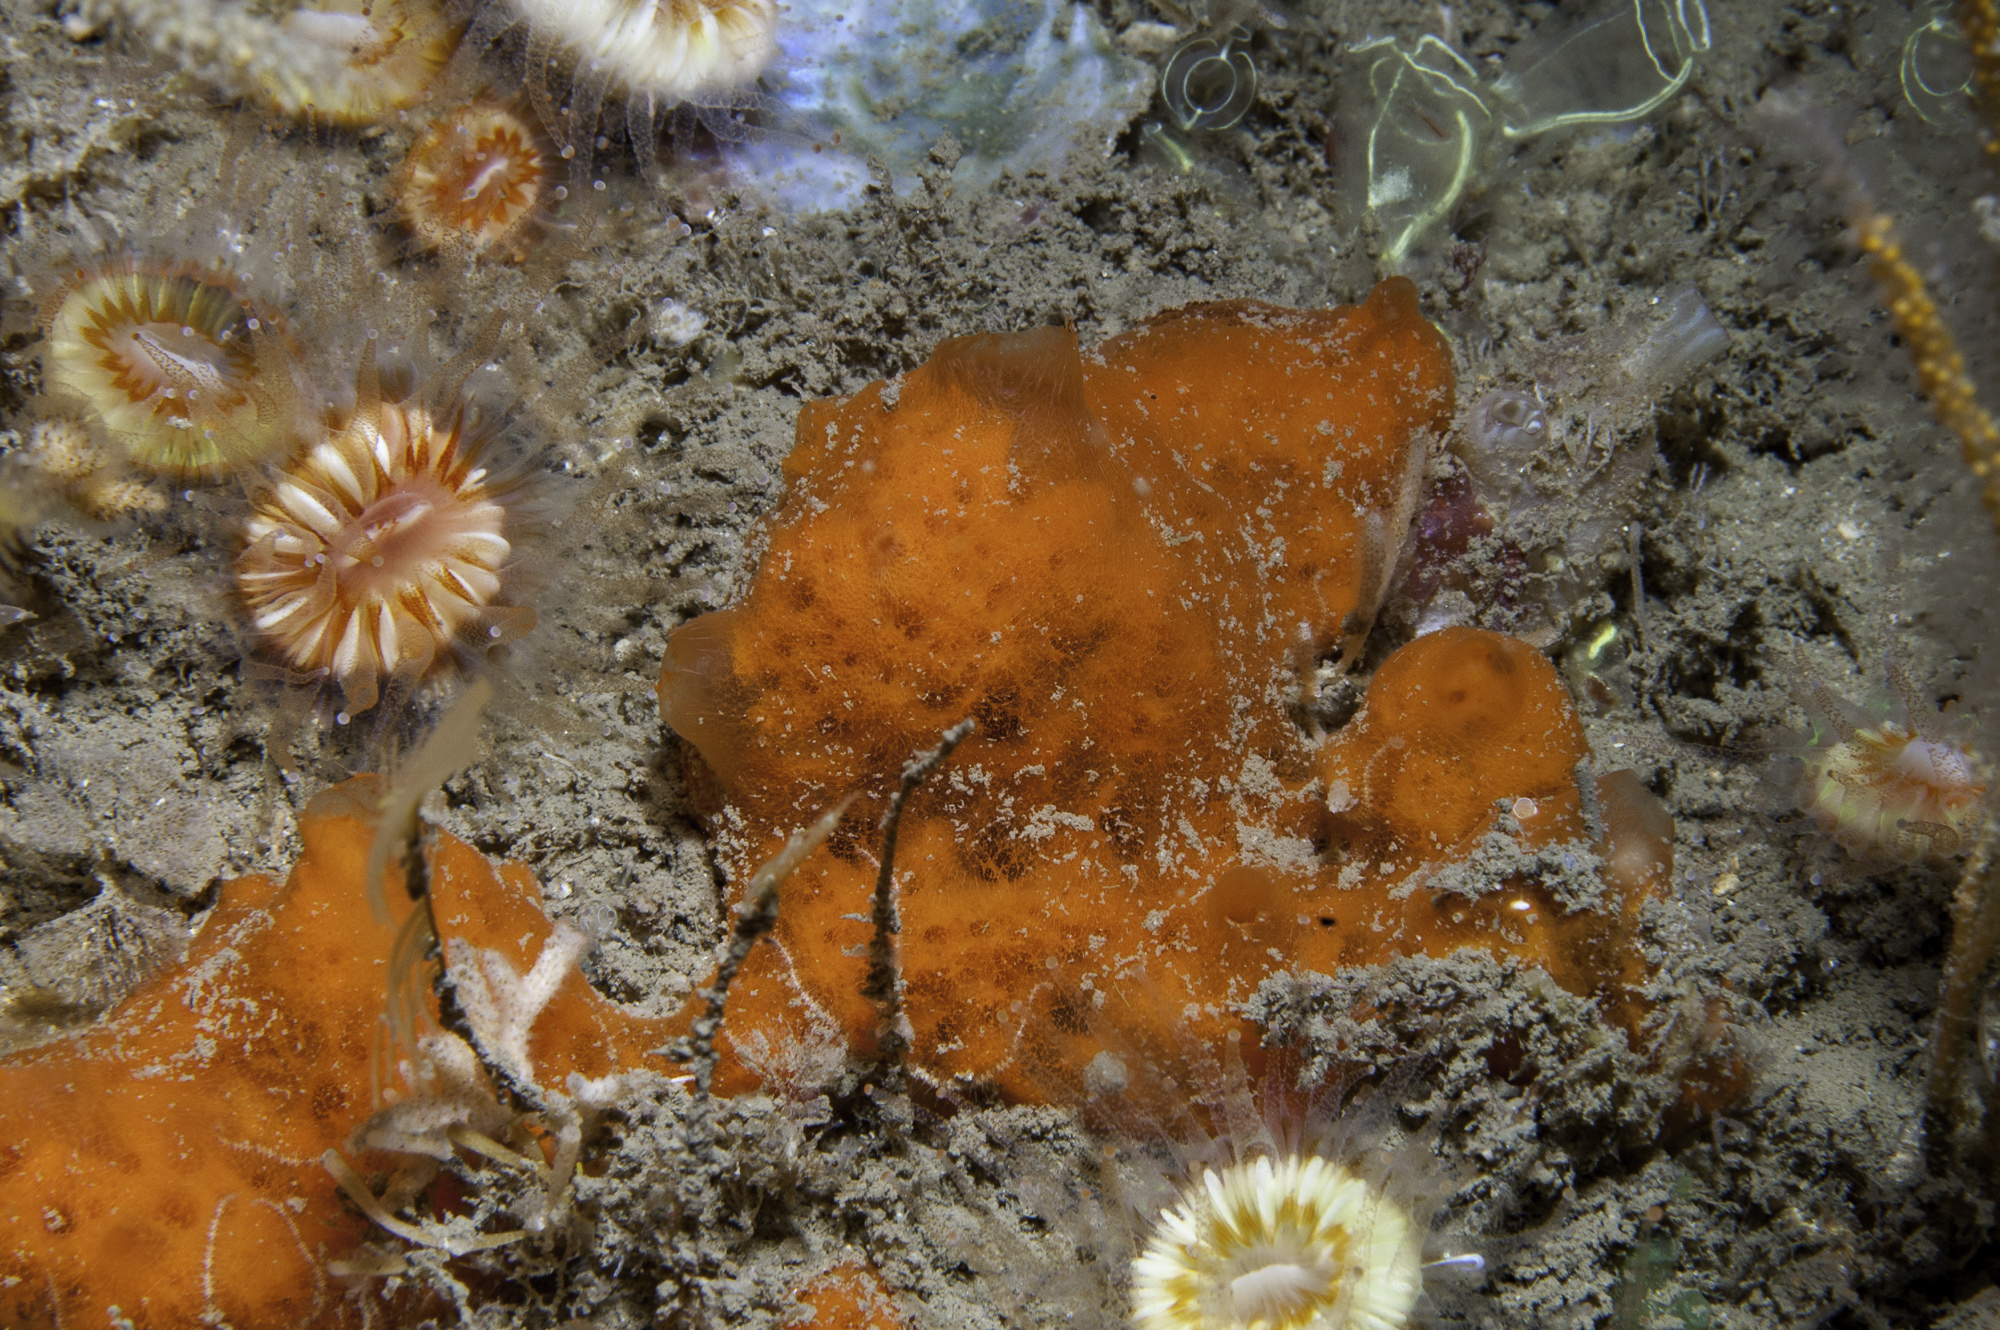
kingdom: Animalia
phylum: Porifera
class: Demospongiae
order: Poecilosclerida
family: Mycalidae
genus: Mycale
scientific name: Mycale rotalis
